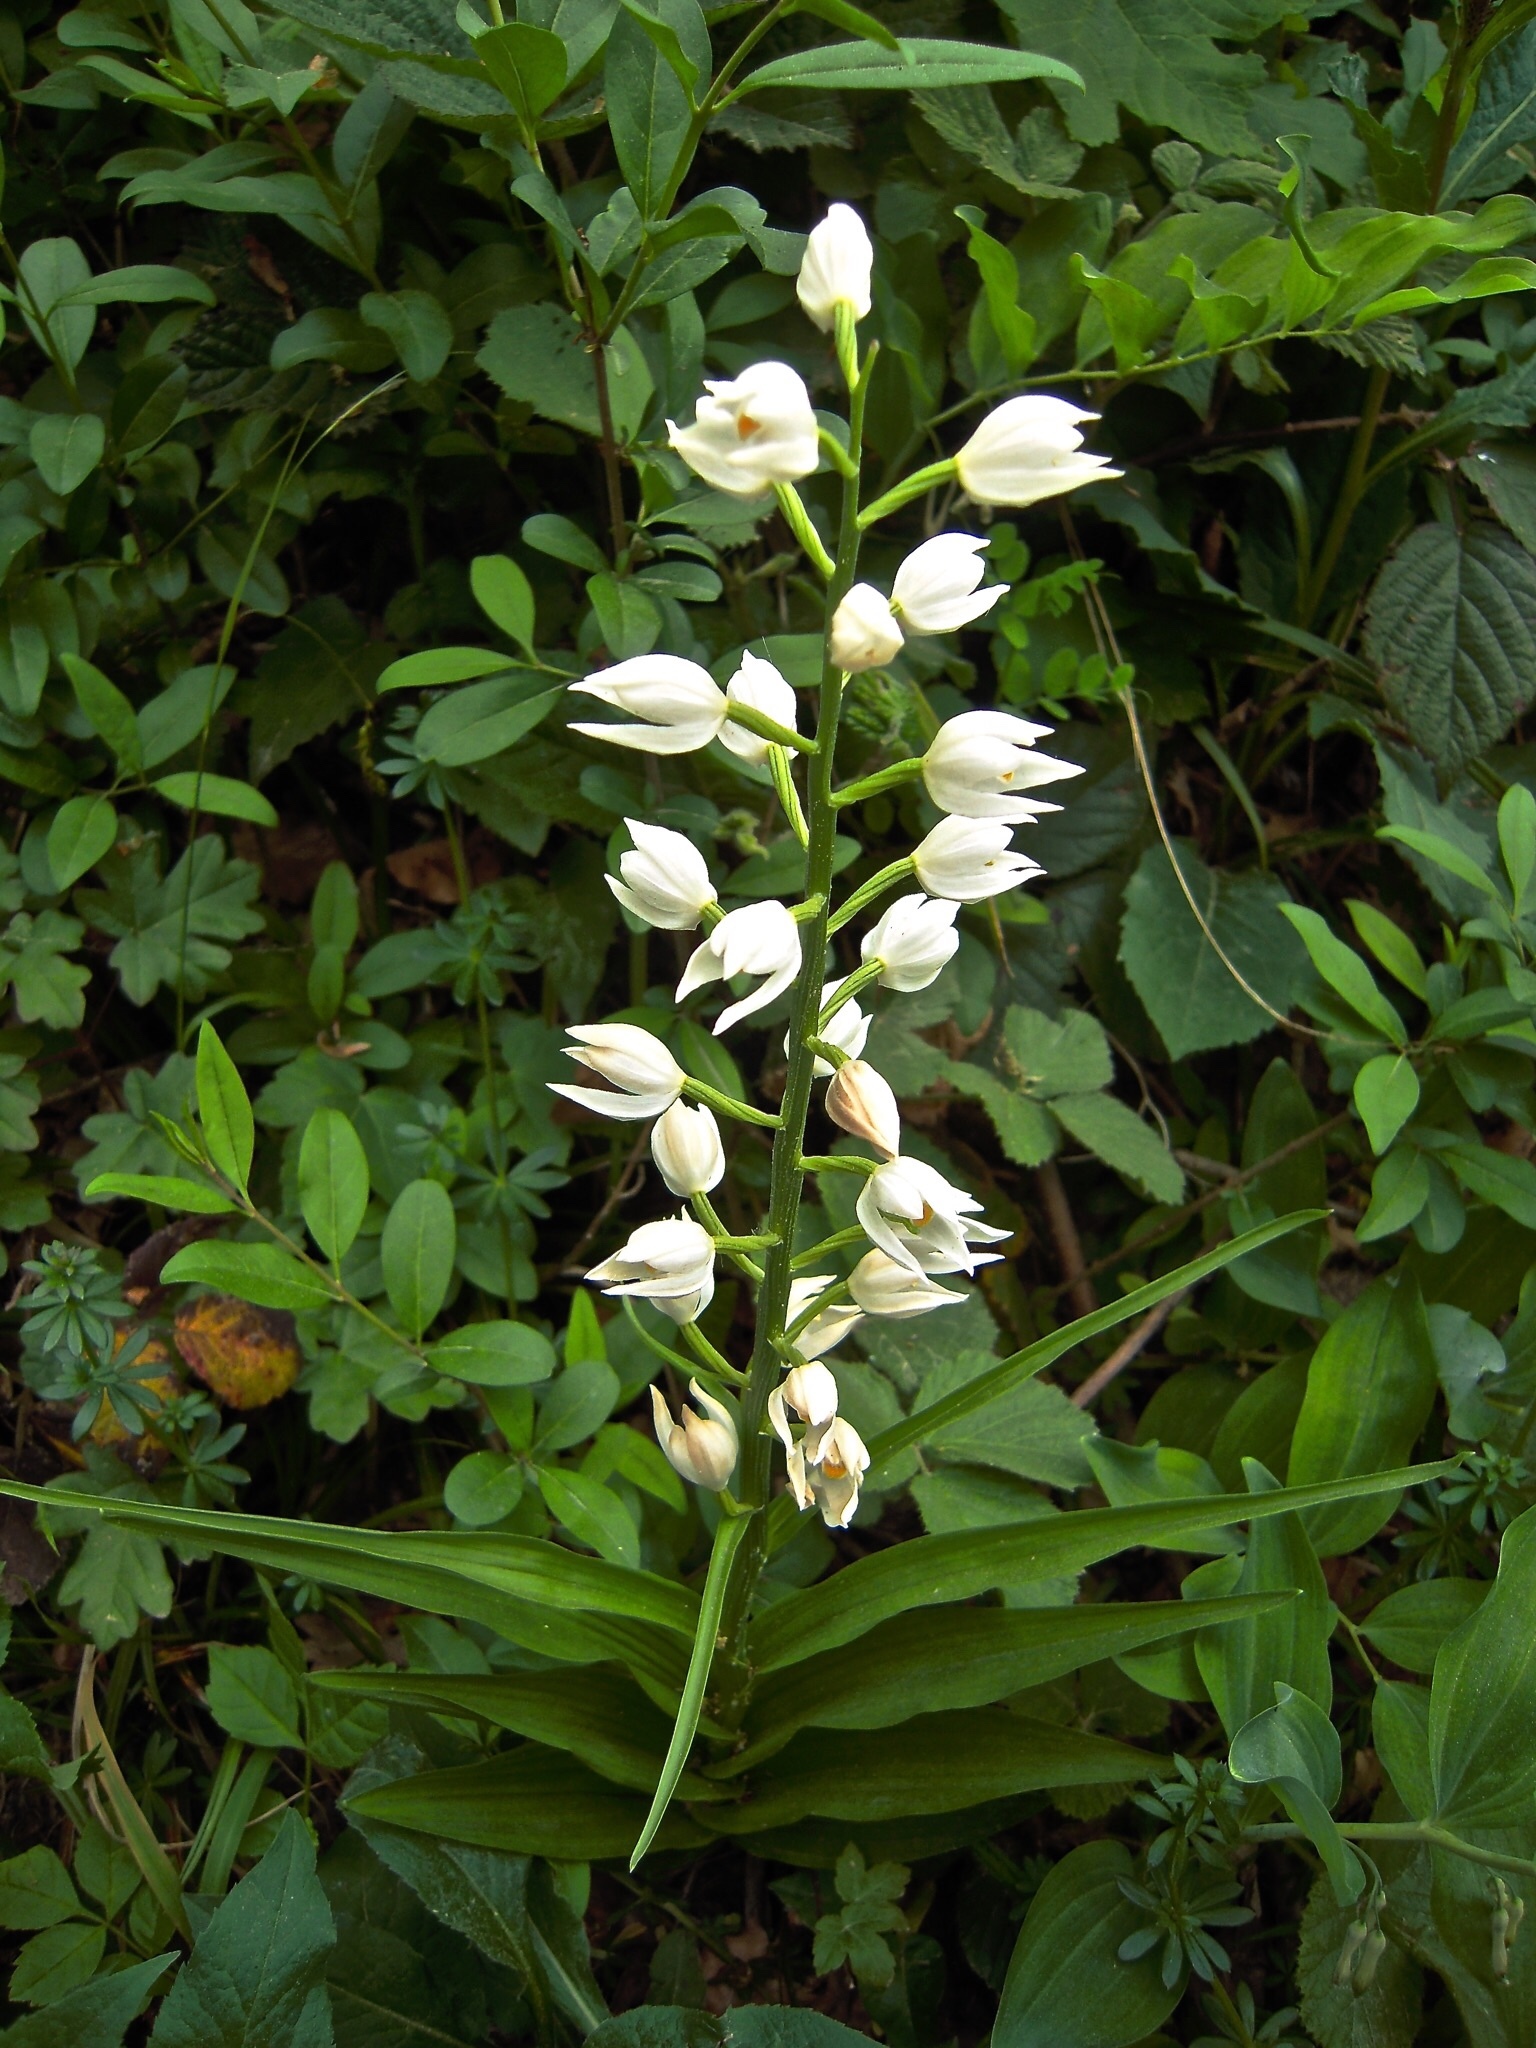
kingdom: Plantae
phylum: Tracheophyta
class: Liliopsida
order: Asparagales
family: Orchidaceae
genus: Cephalanthera
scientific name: Cephalanthera longifolia
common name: Narrow-leaved helleborine
